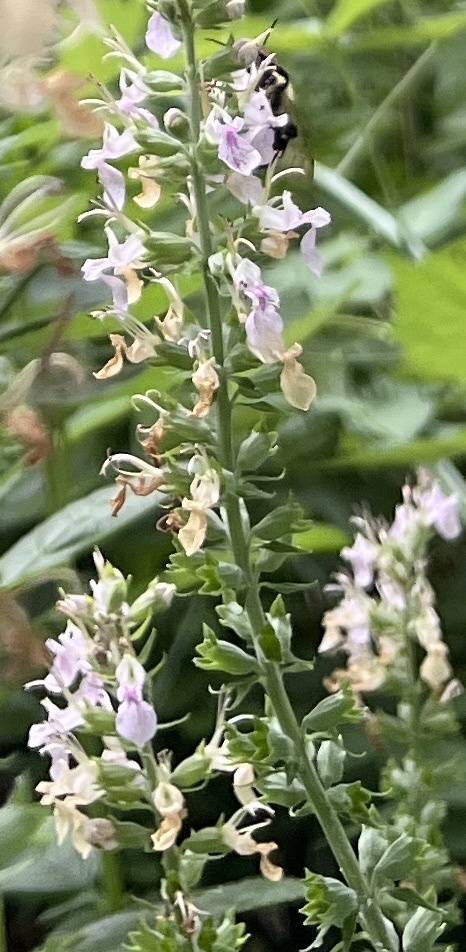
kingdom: Plantae
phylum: Tracheophyta
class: Magnoliopsida
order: Lamiales
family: Lamiaceae
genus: Teucrium
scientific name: Teucrium canadense
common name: American germander
